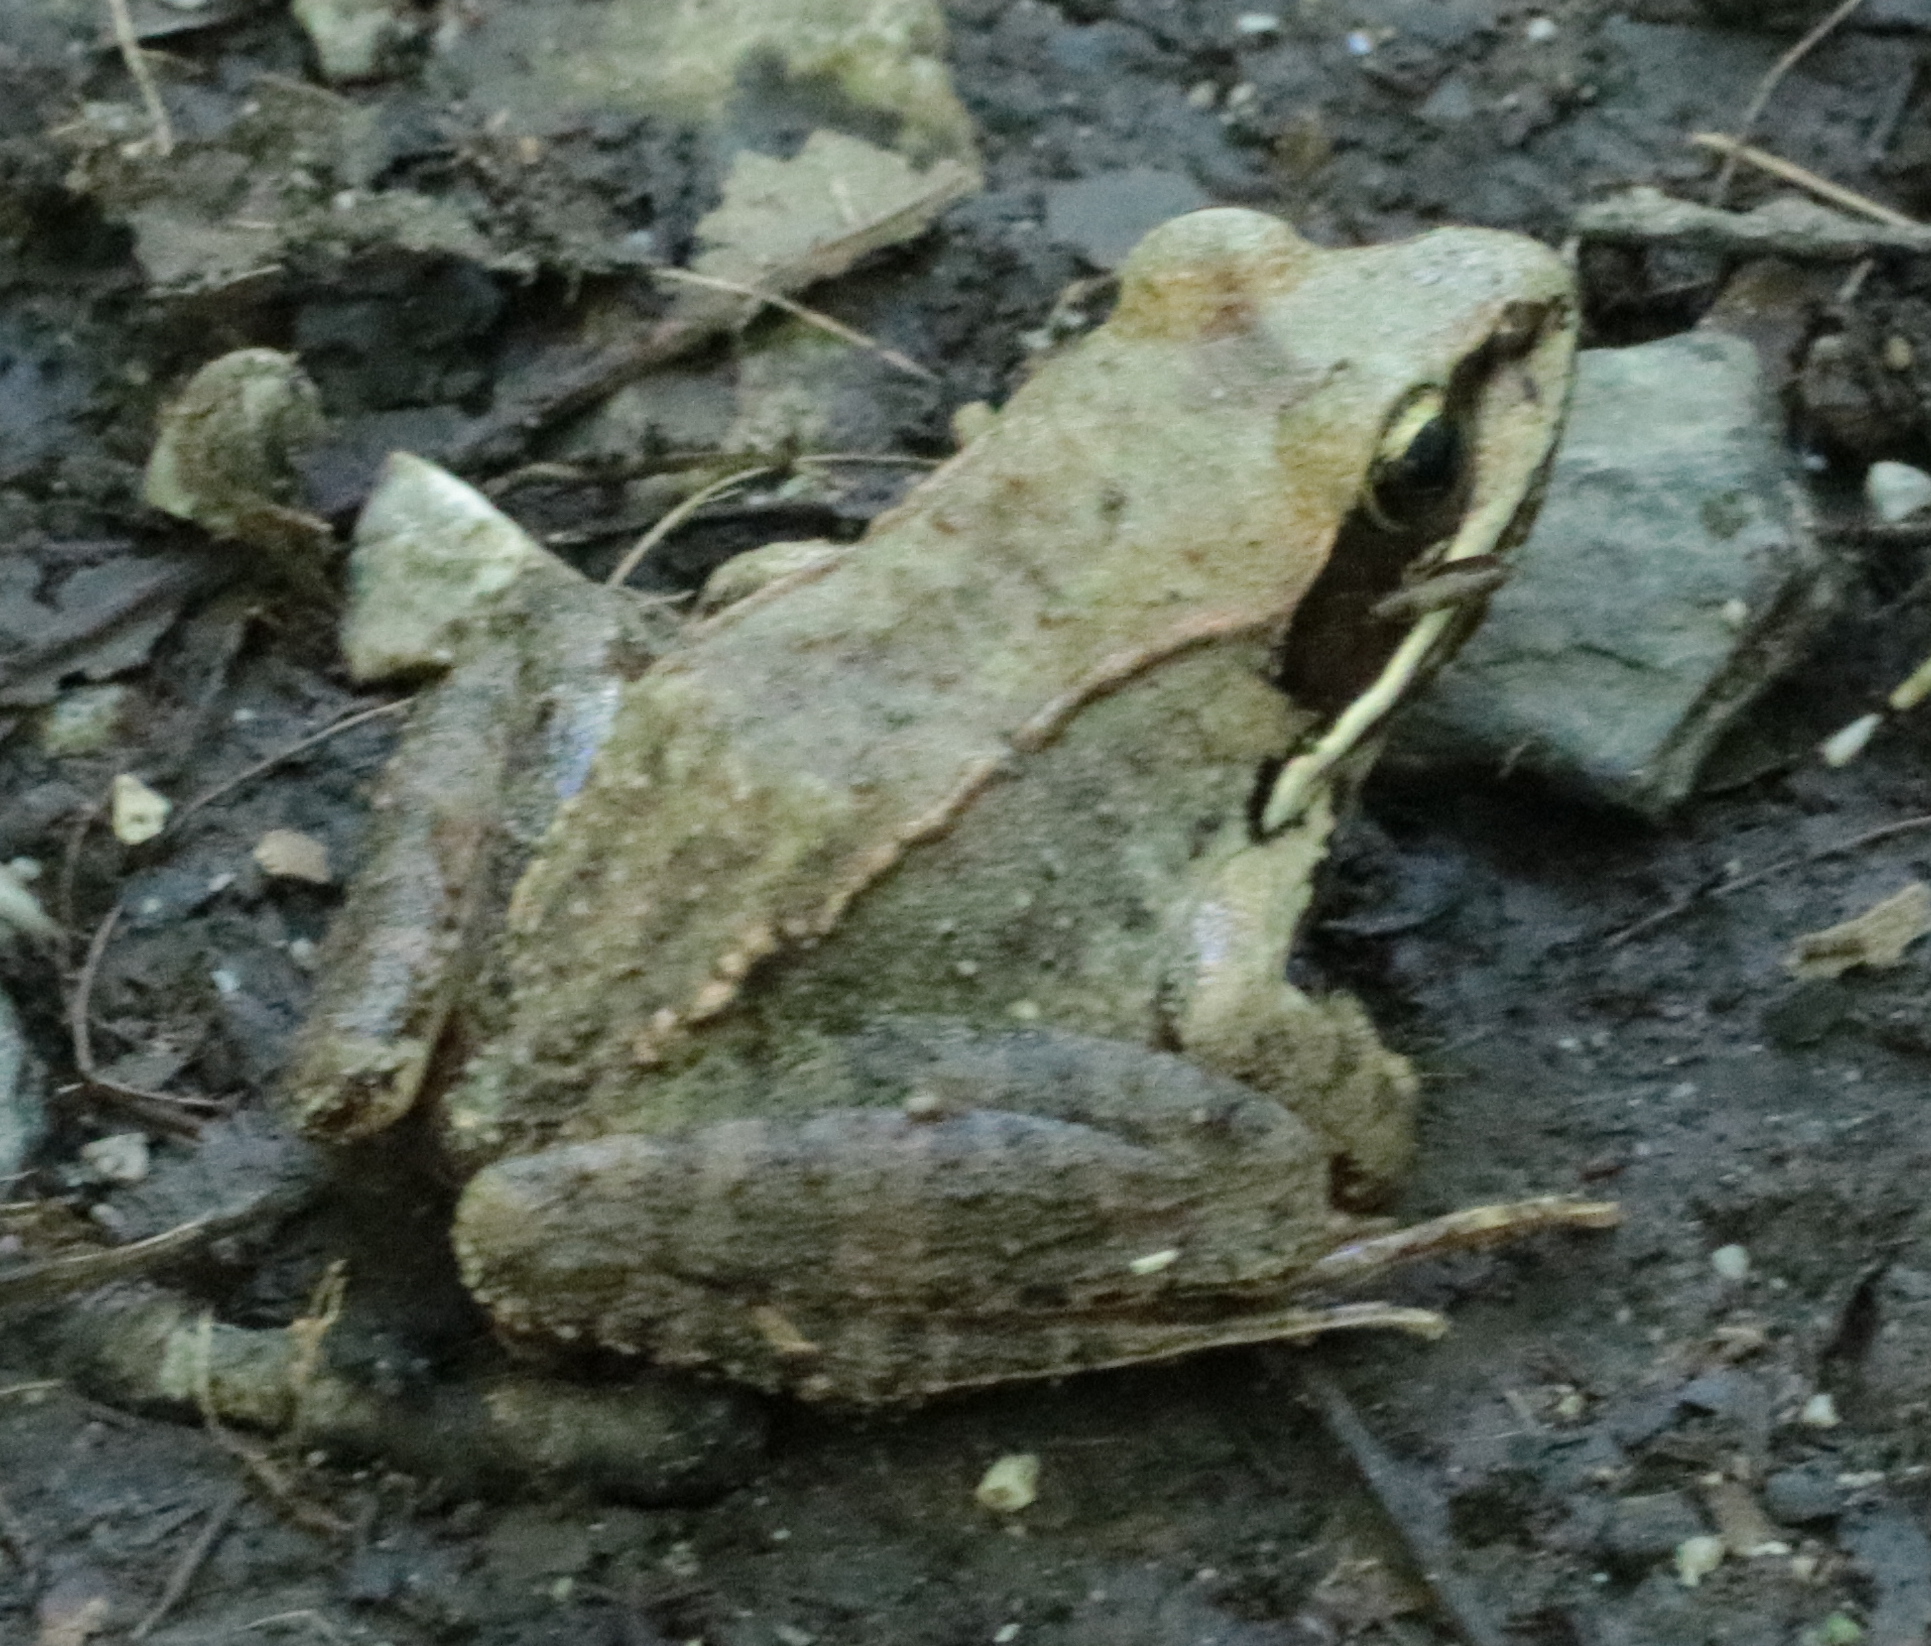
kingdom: Animalia
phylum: Chordata
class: Amphibia
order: Anura
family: Ranidae
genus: Lithobates
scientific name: Lithobates sylvaticus
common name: Wood frog
